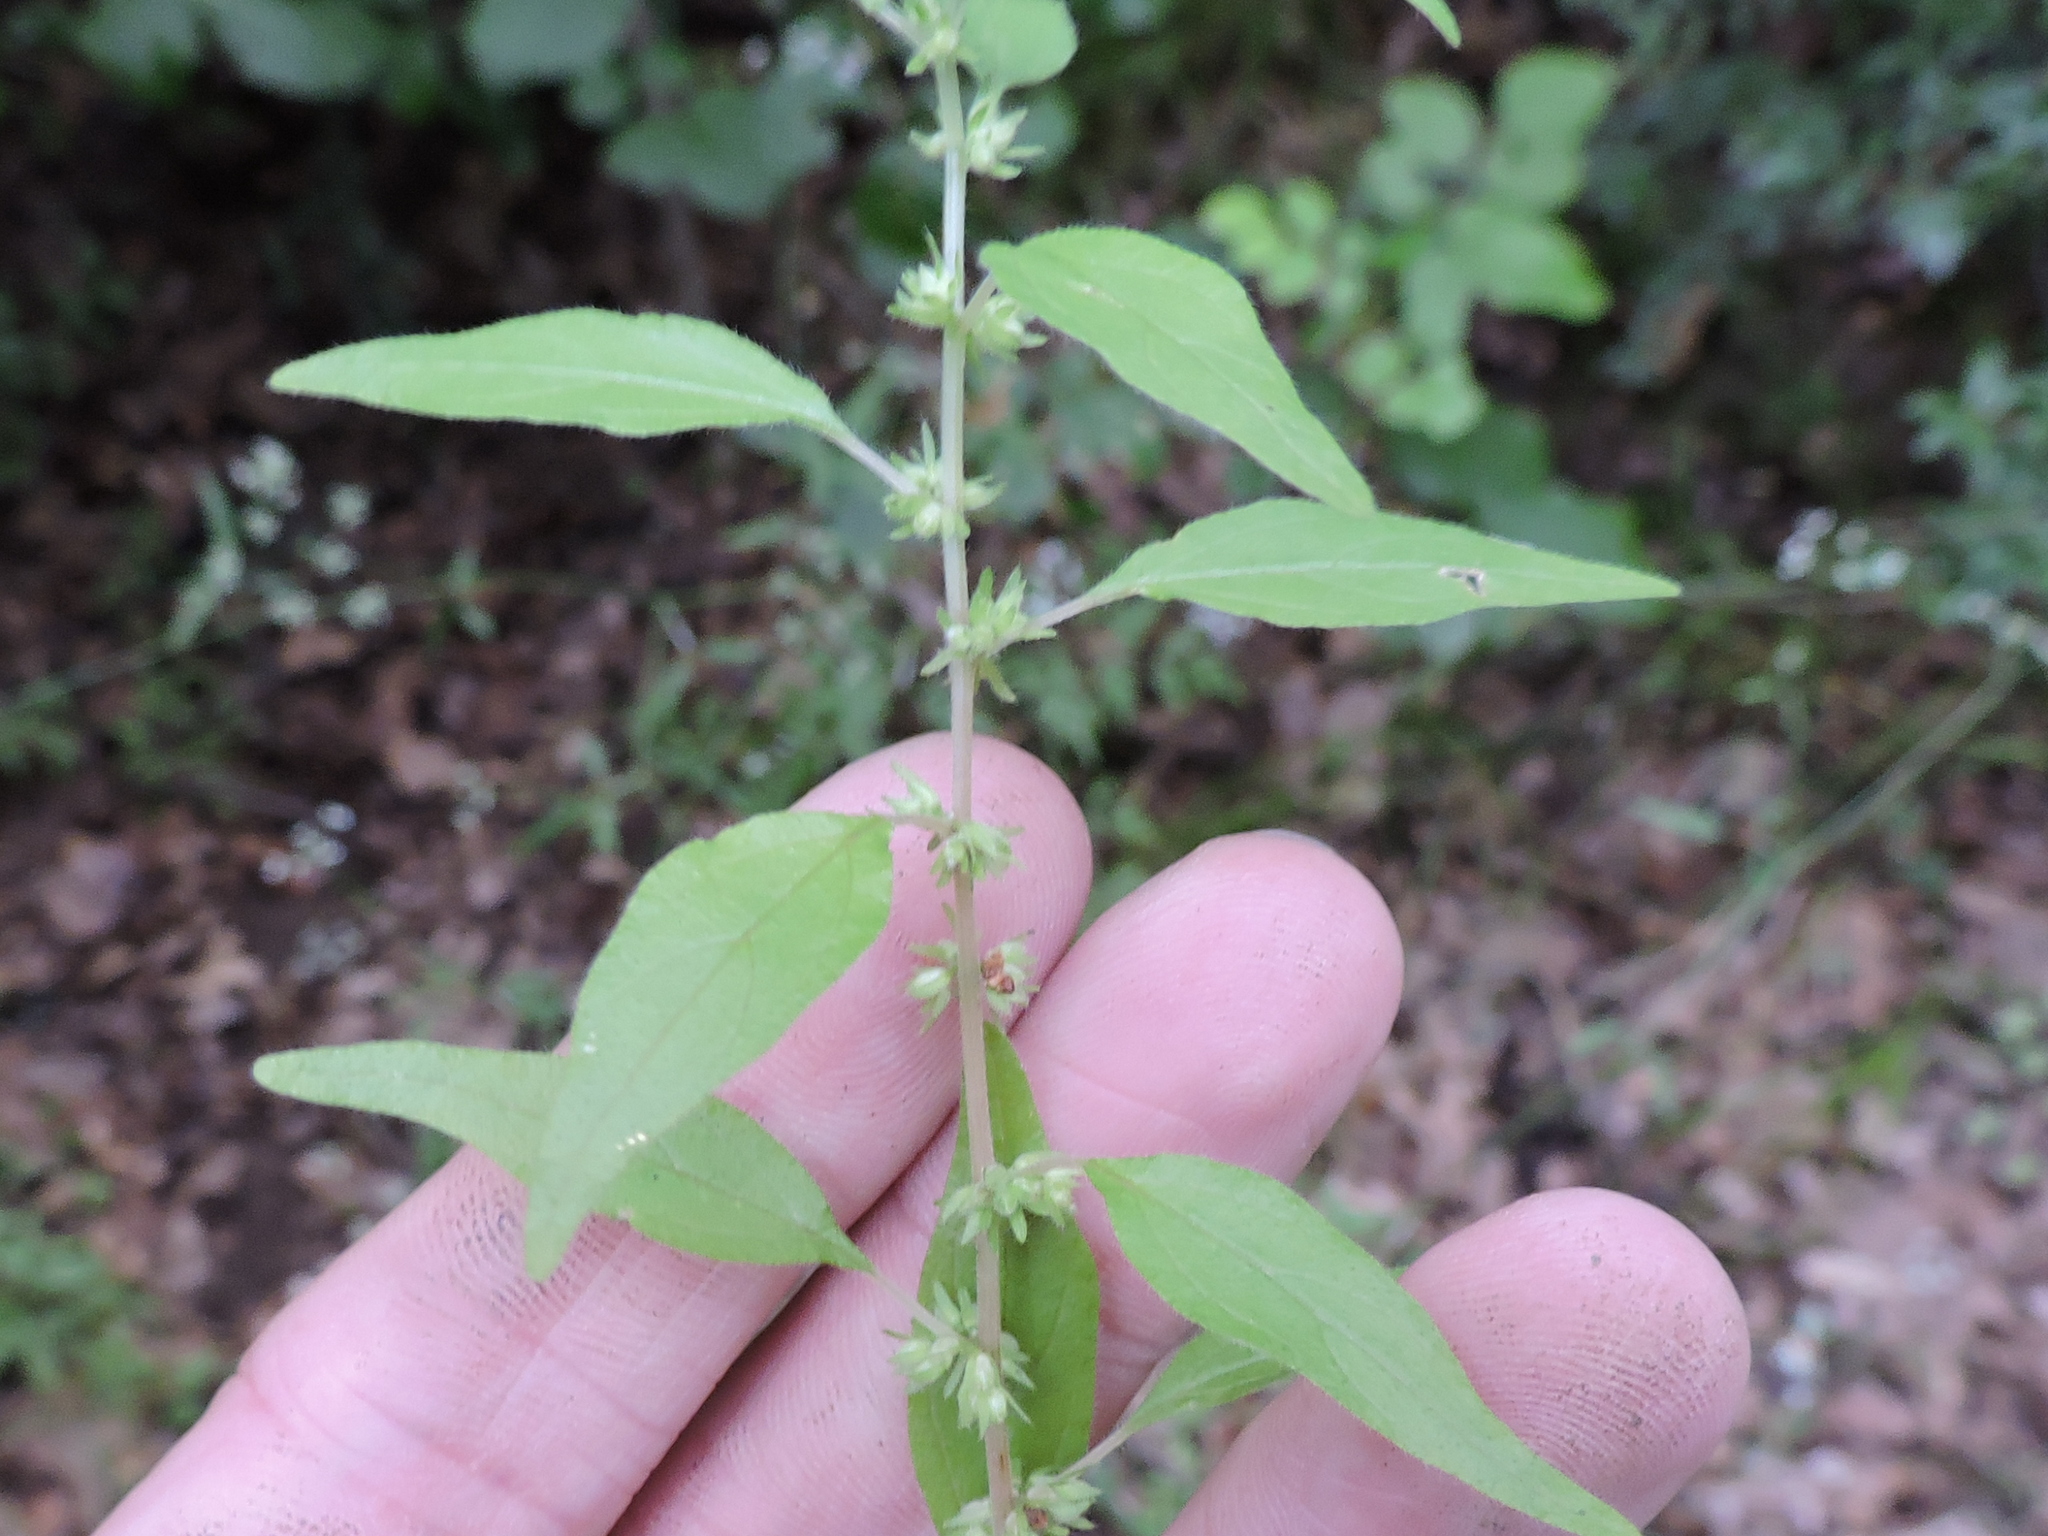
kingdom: Plantae
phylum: Tracheophyta
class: Magnoliopsida
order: Rosales
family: Urticaceae
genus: Parietaria
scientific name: Parietaria pensylvanica
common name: Pennsylvania pellitory
